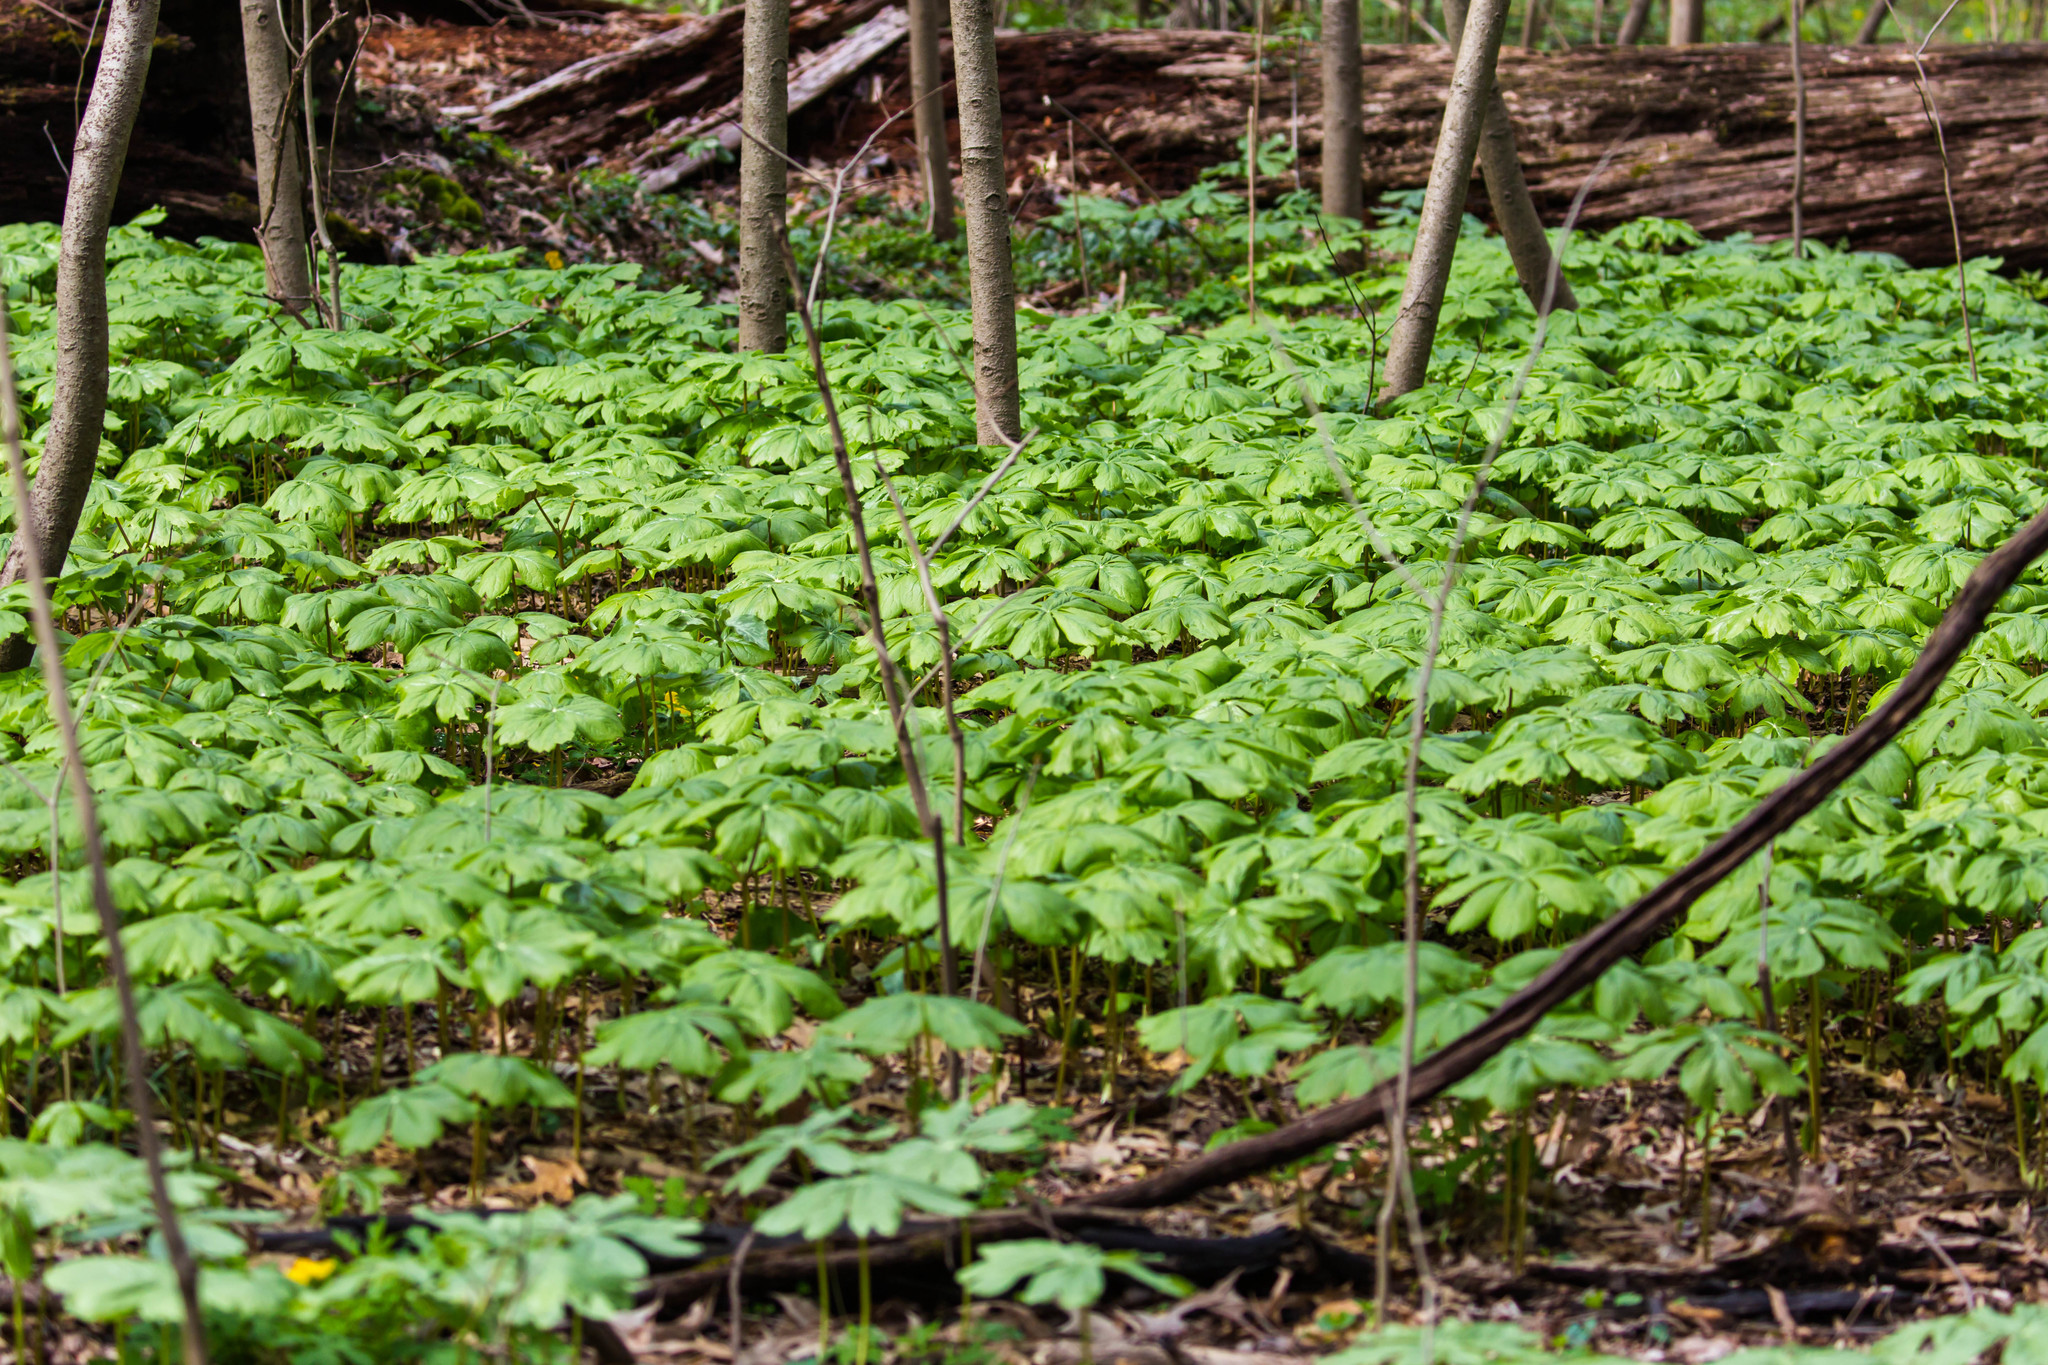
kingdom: Plantae
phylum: Tracheophyta
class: Magnoliopsida
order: Ranunculales
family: Berberidaceae
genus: Podophyllum
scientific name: Podophyllum peltatum
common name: Wild mandrake
